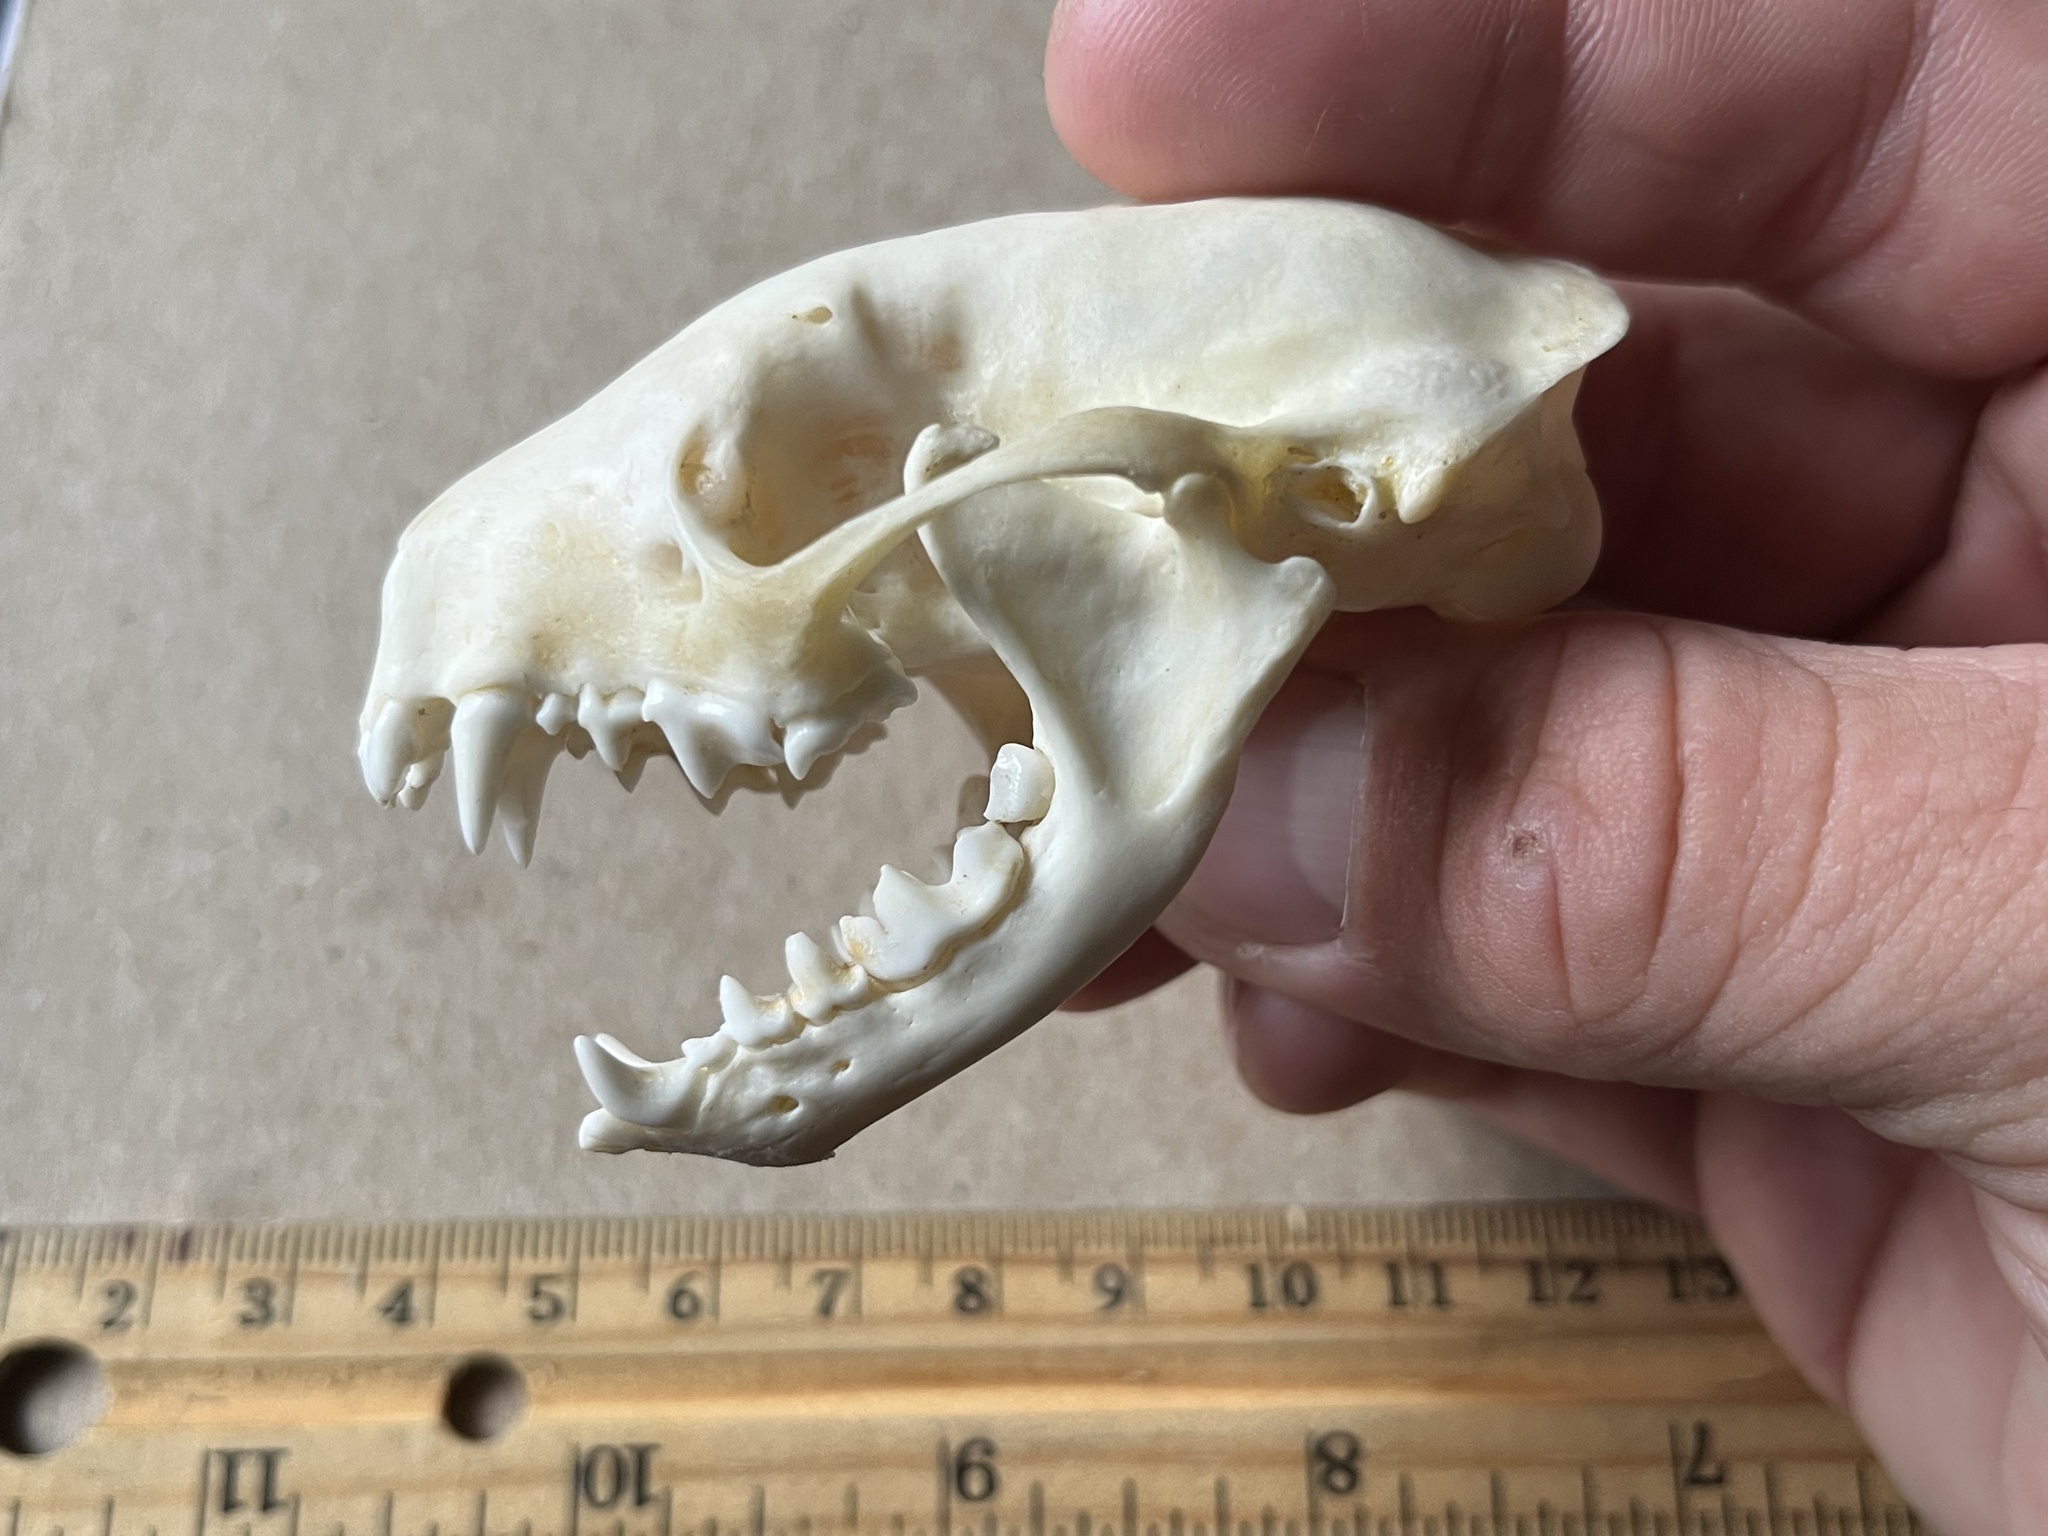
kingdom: Animalia
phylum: Chordata
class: Mammalia
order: Carnivora
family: Mephitidae
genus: Mephitis
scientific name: Mephitis mephitis
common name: Striped skunk
